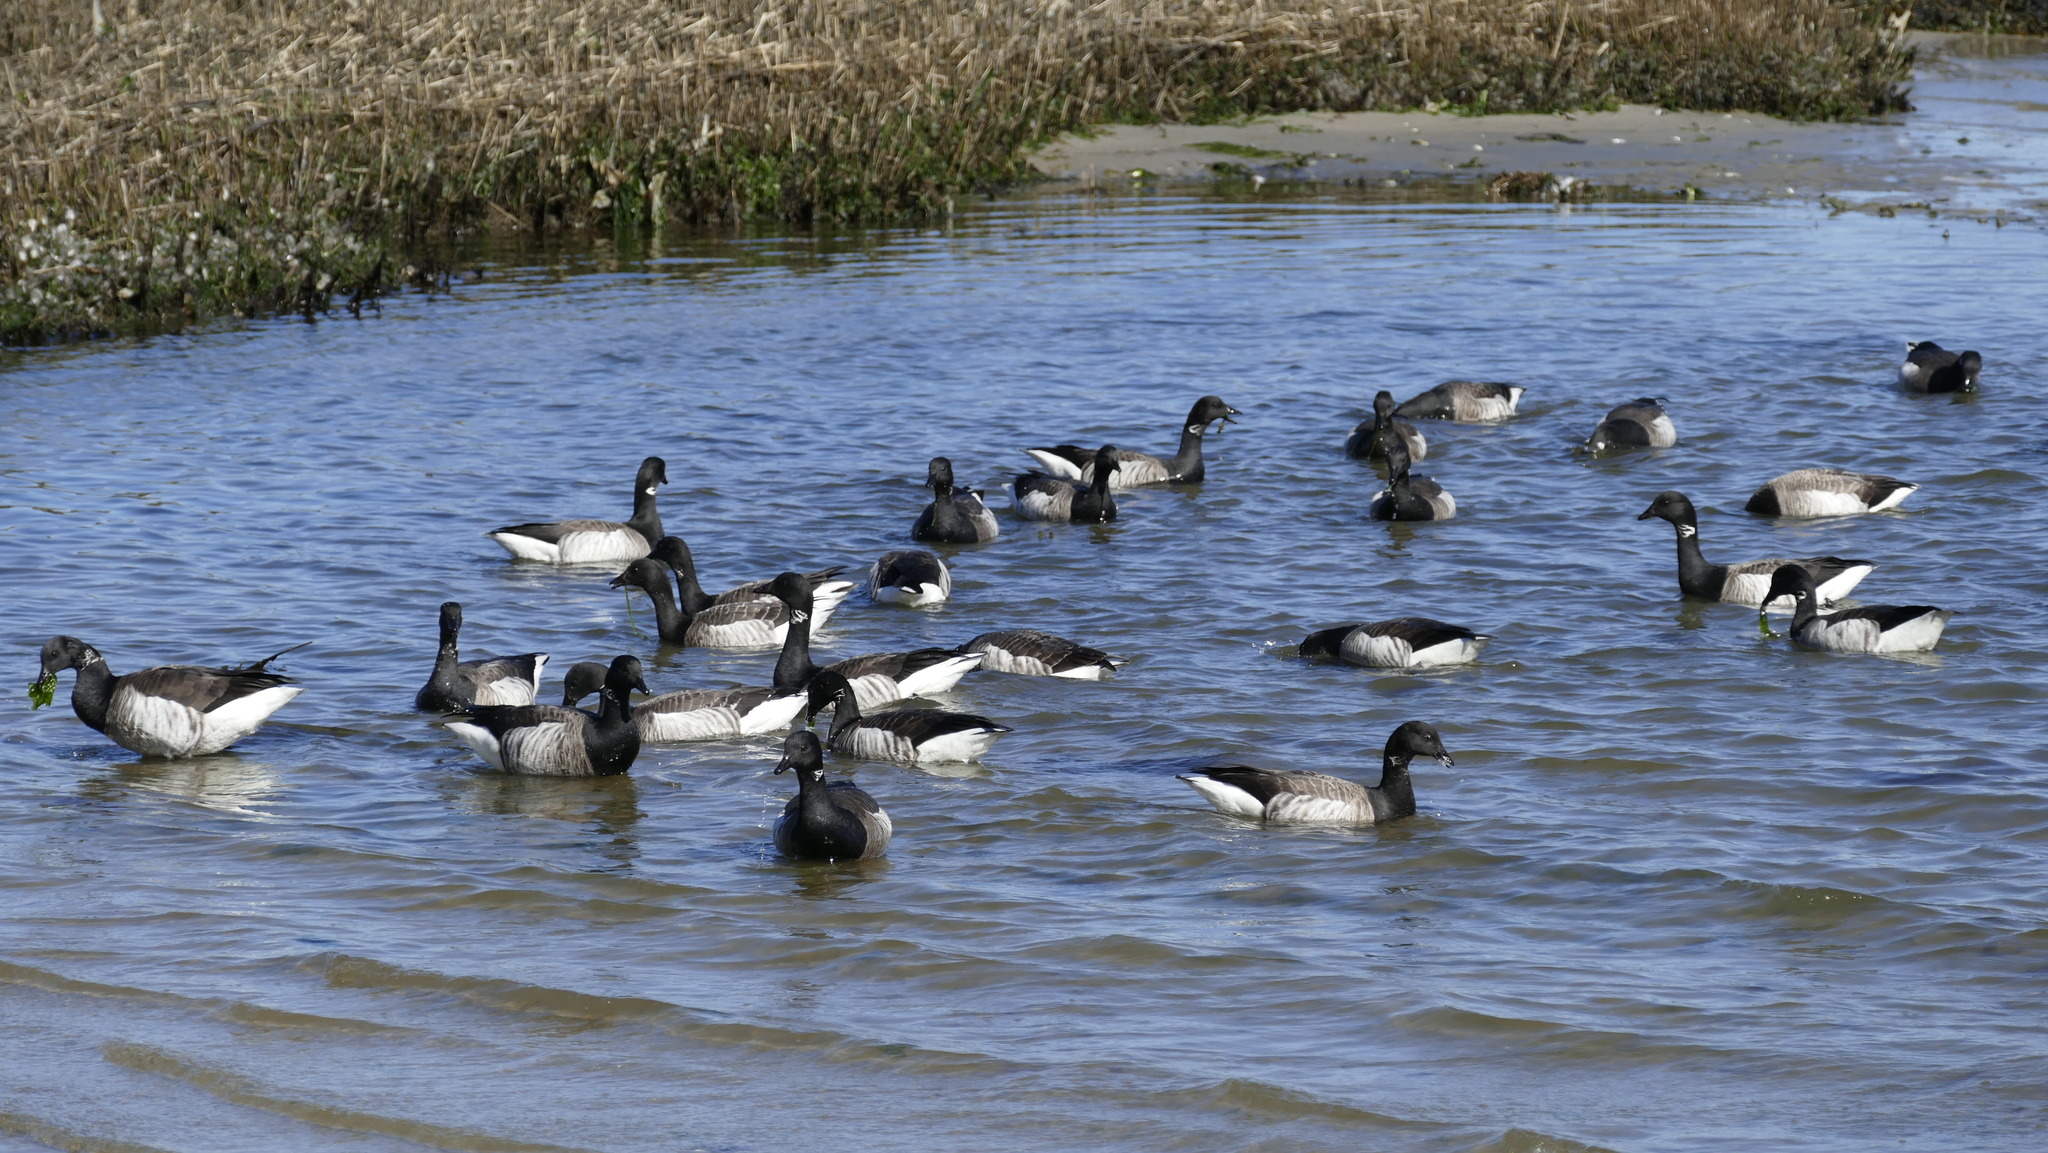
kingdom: Animalia
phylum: Chordata
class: Aves
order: Anseriformes
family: Anatidae
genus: Branta
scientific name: Branta bernicla
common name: Brant goose
